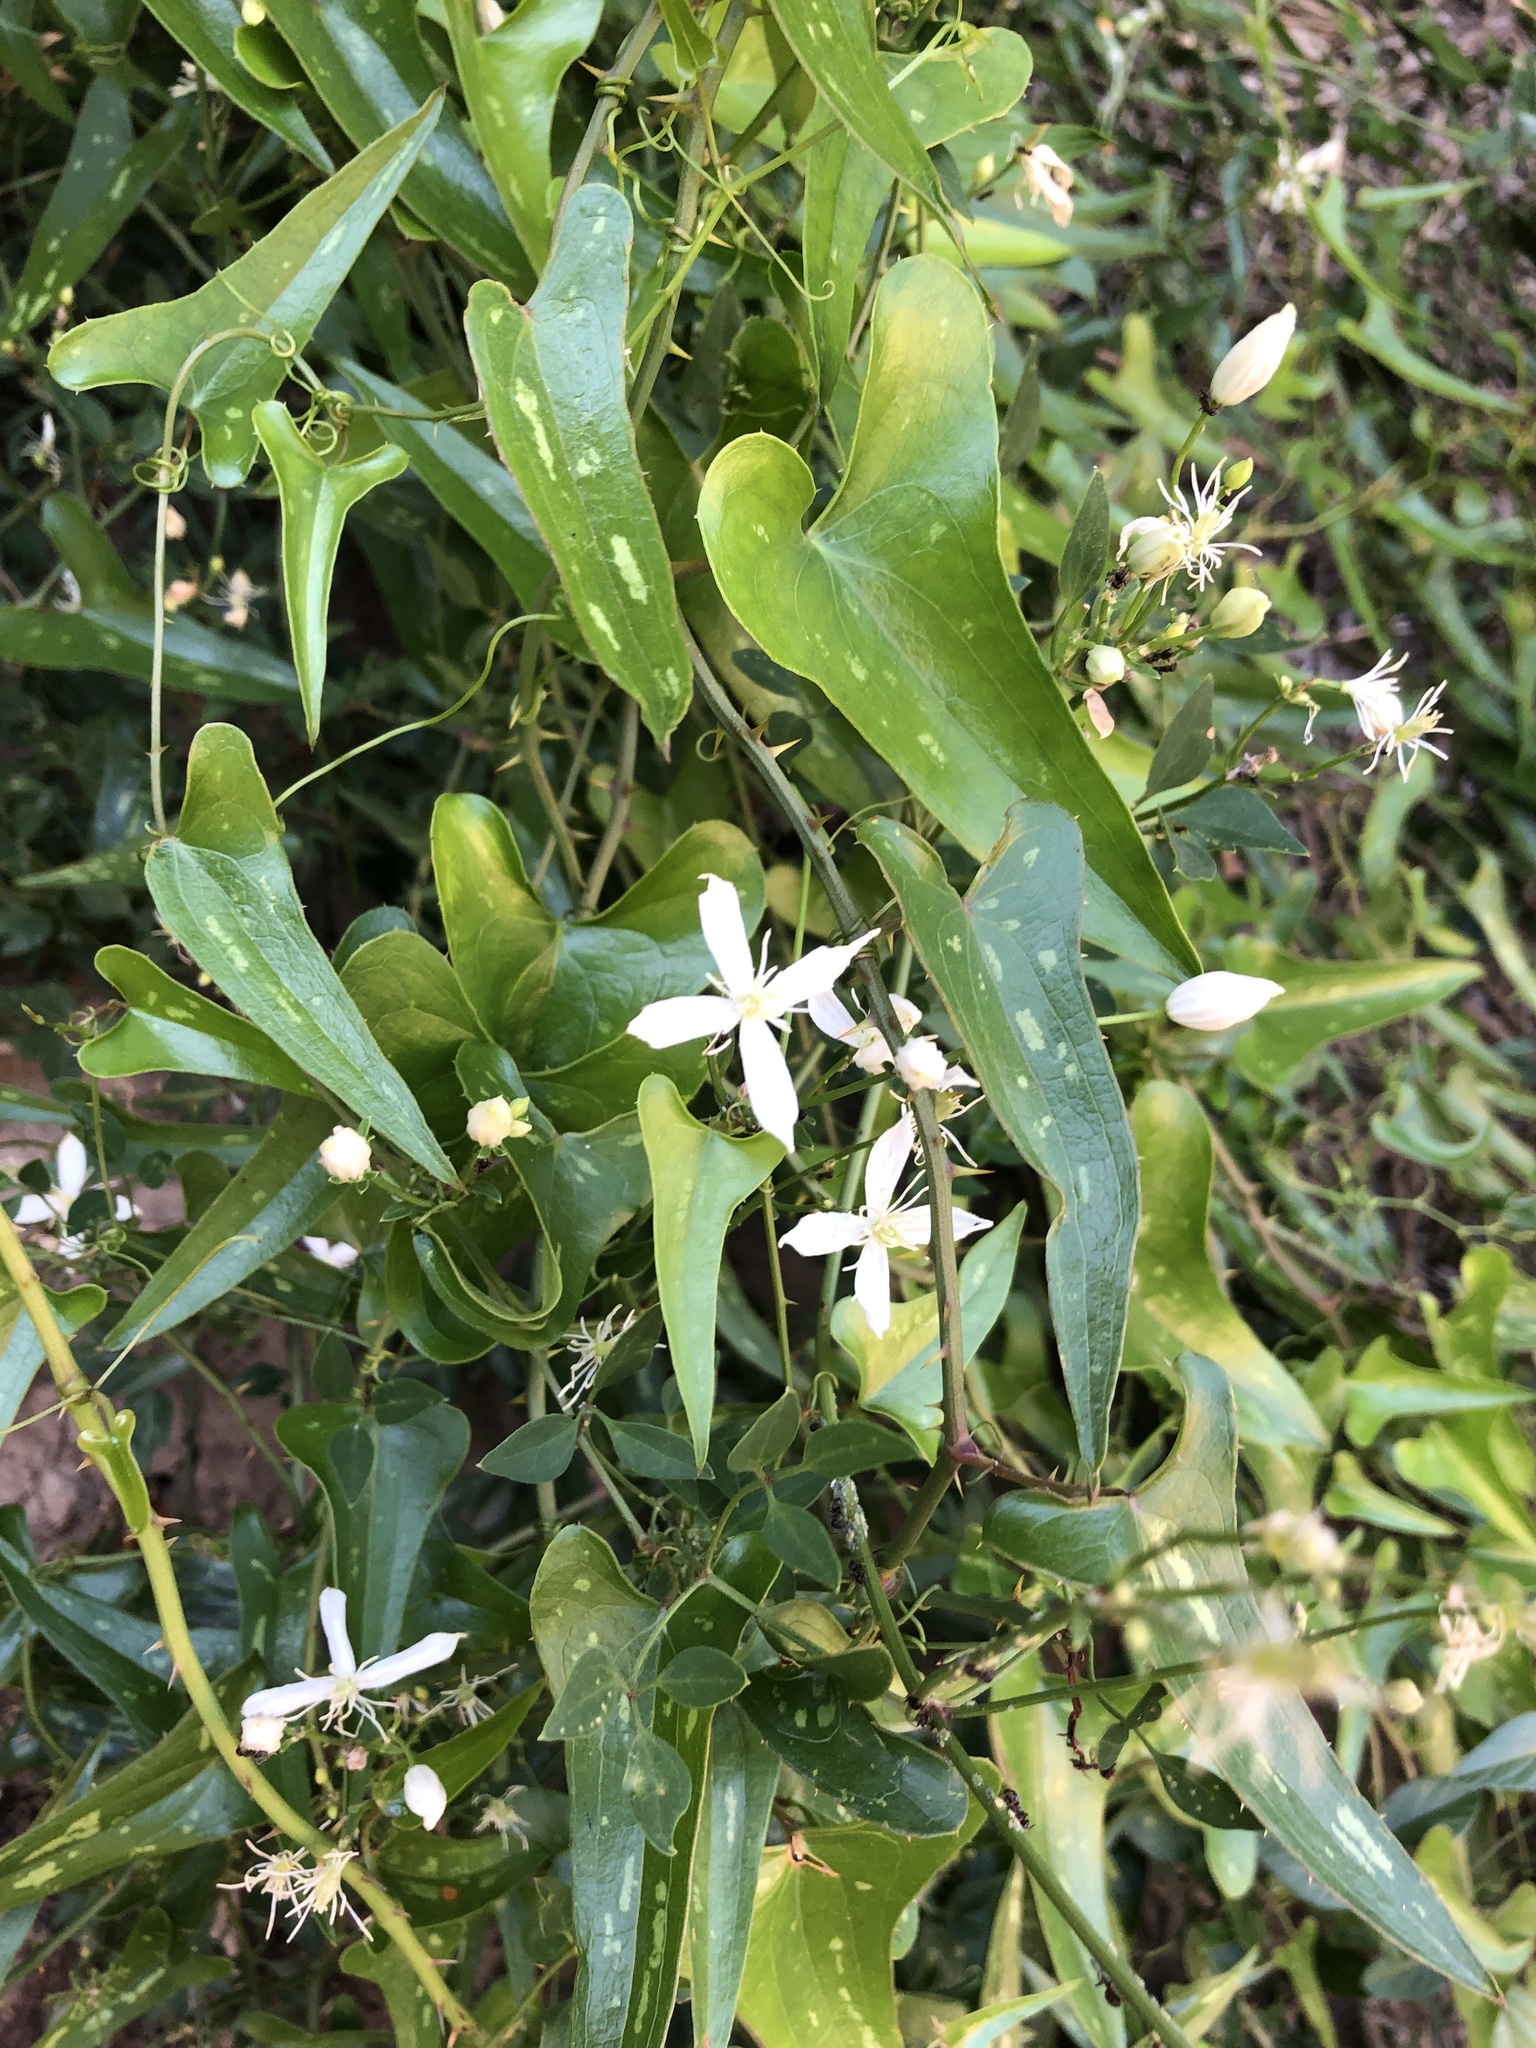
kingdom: Plantae
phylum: Tracheophyta
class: Liliopsida
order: Liliales
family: Smilacaceae
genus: Smilax
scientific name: Smilax aspera
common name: Common smilax
